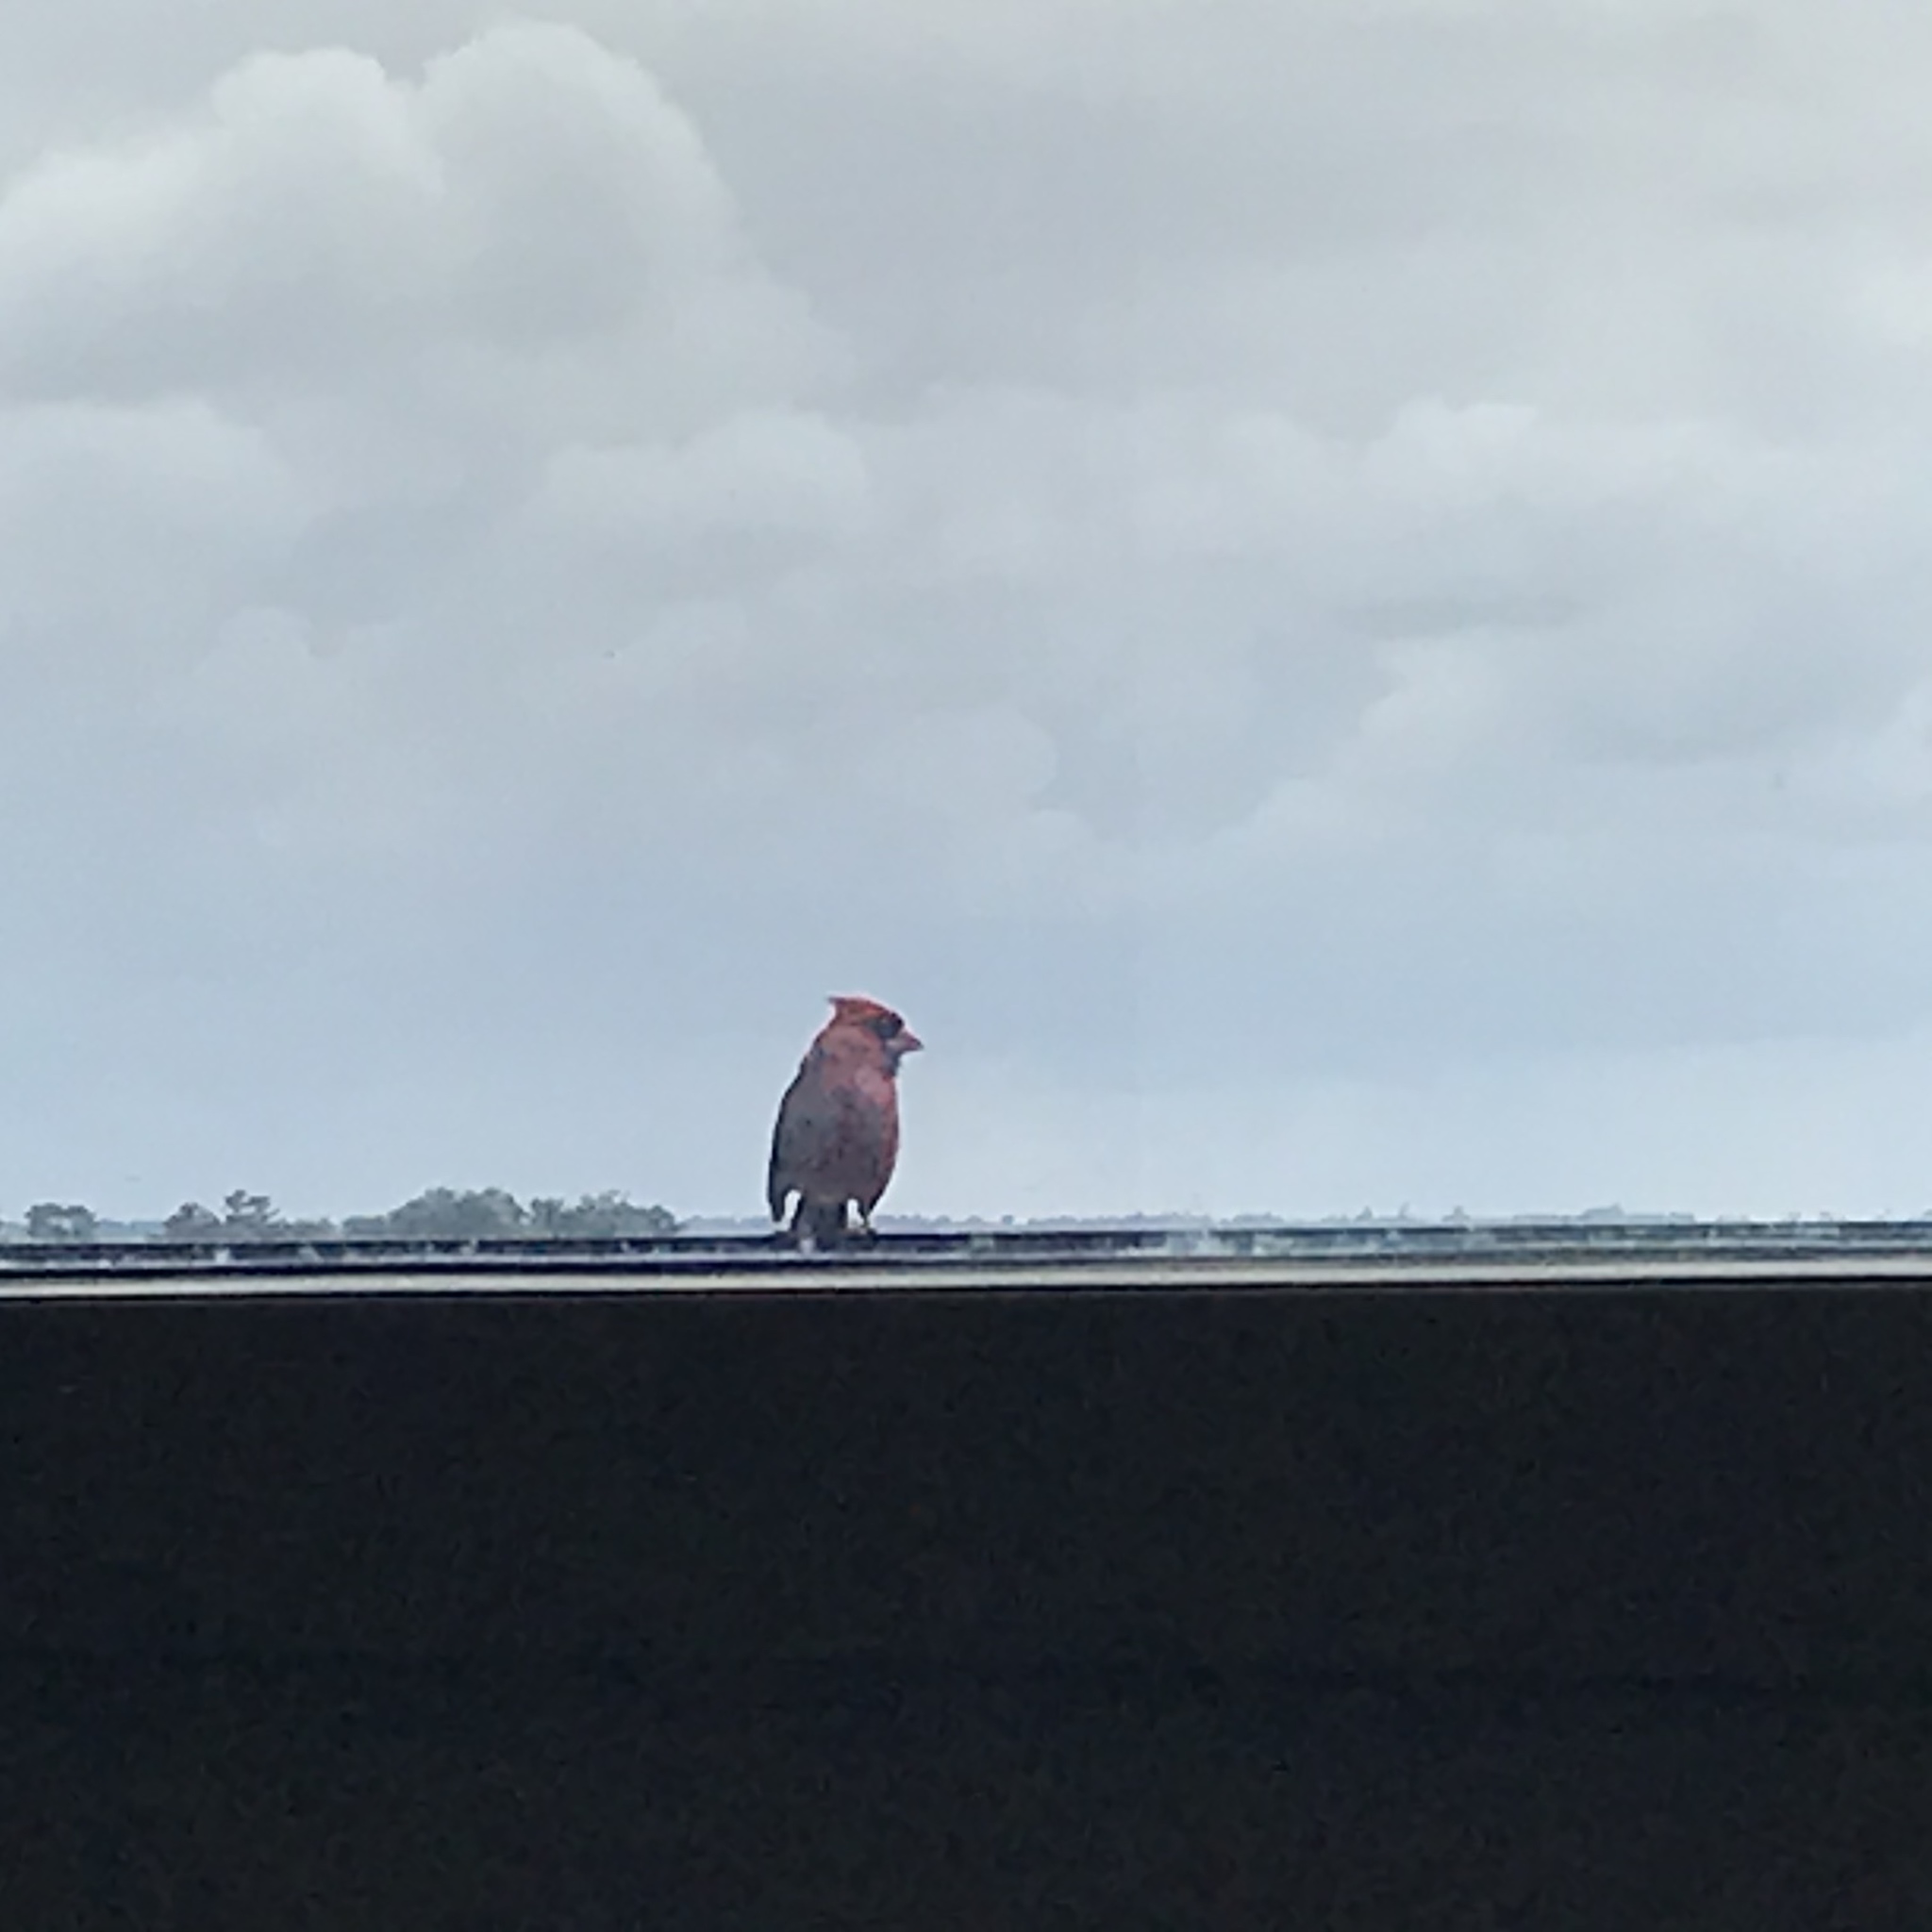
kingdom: Animalia
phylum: Chordata
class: Aves
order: Passeriformes
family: Cardinalidae
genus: Cardinalis
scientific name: Cardinalis cardinalis
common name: Northern cardinal
